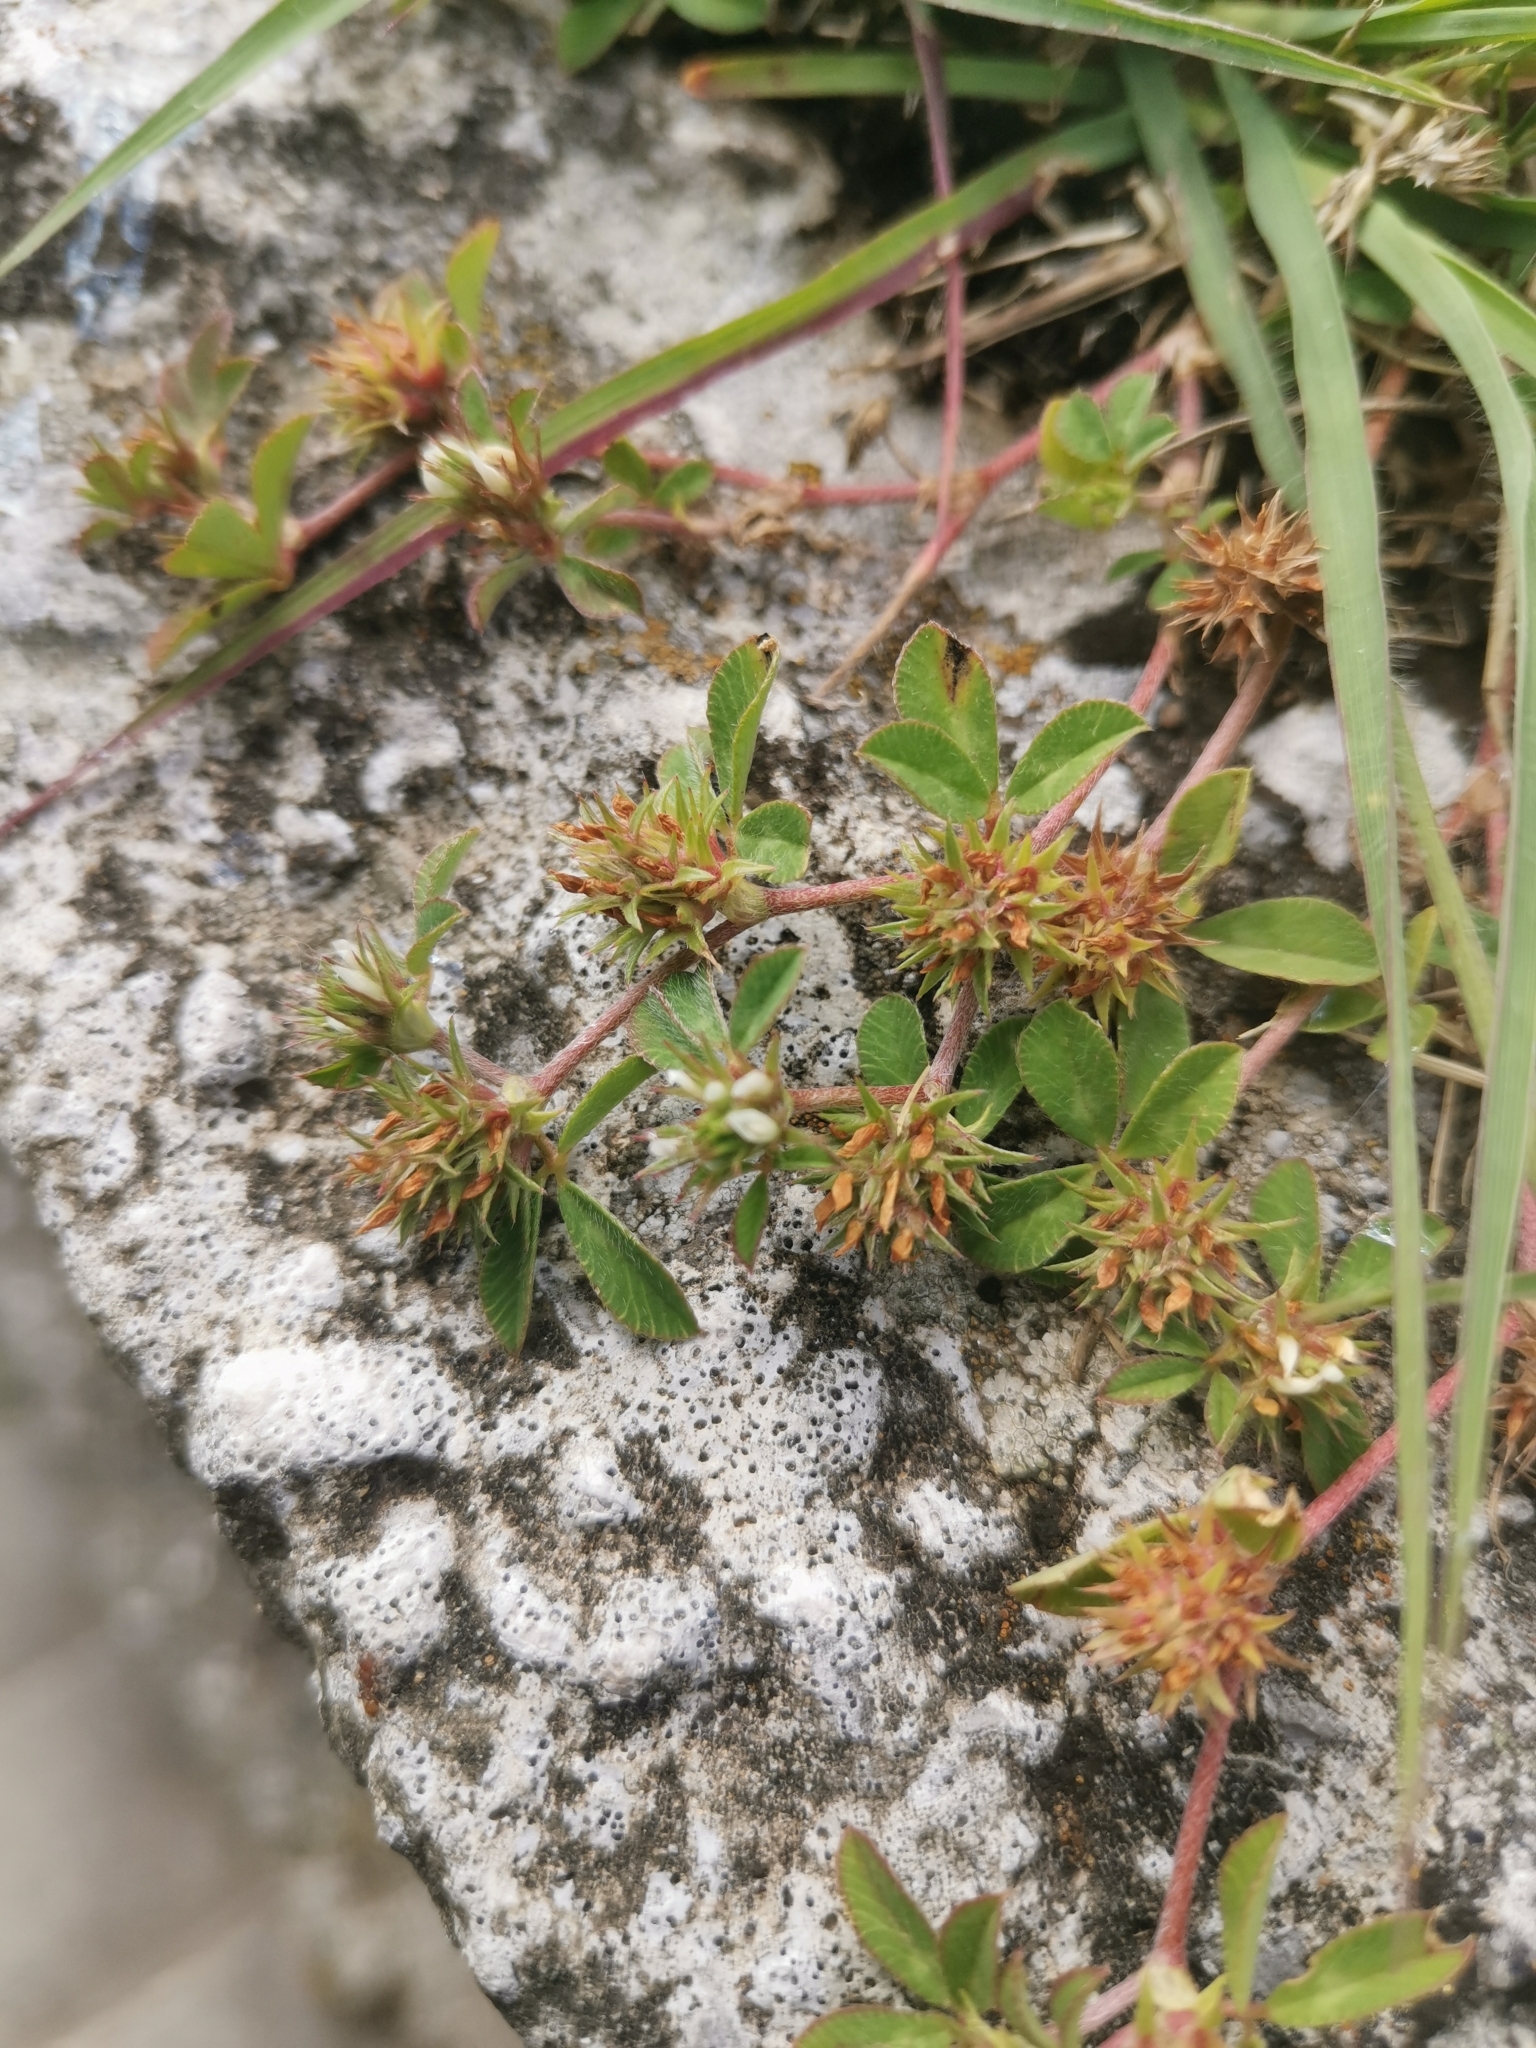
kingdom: Plantae
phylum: Tracheophyta
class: Magnoliopsida
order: Fabales
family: Fabaceae
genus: Trifolium
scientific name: Trifolium scabrum
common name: Rough clover
